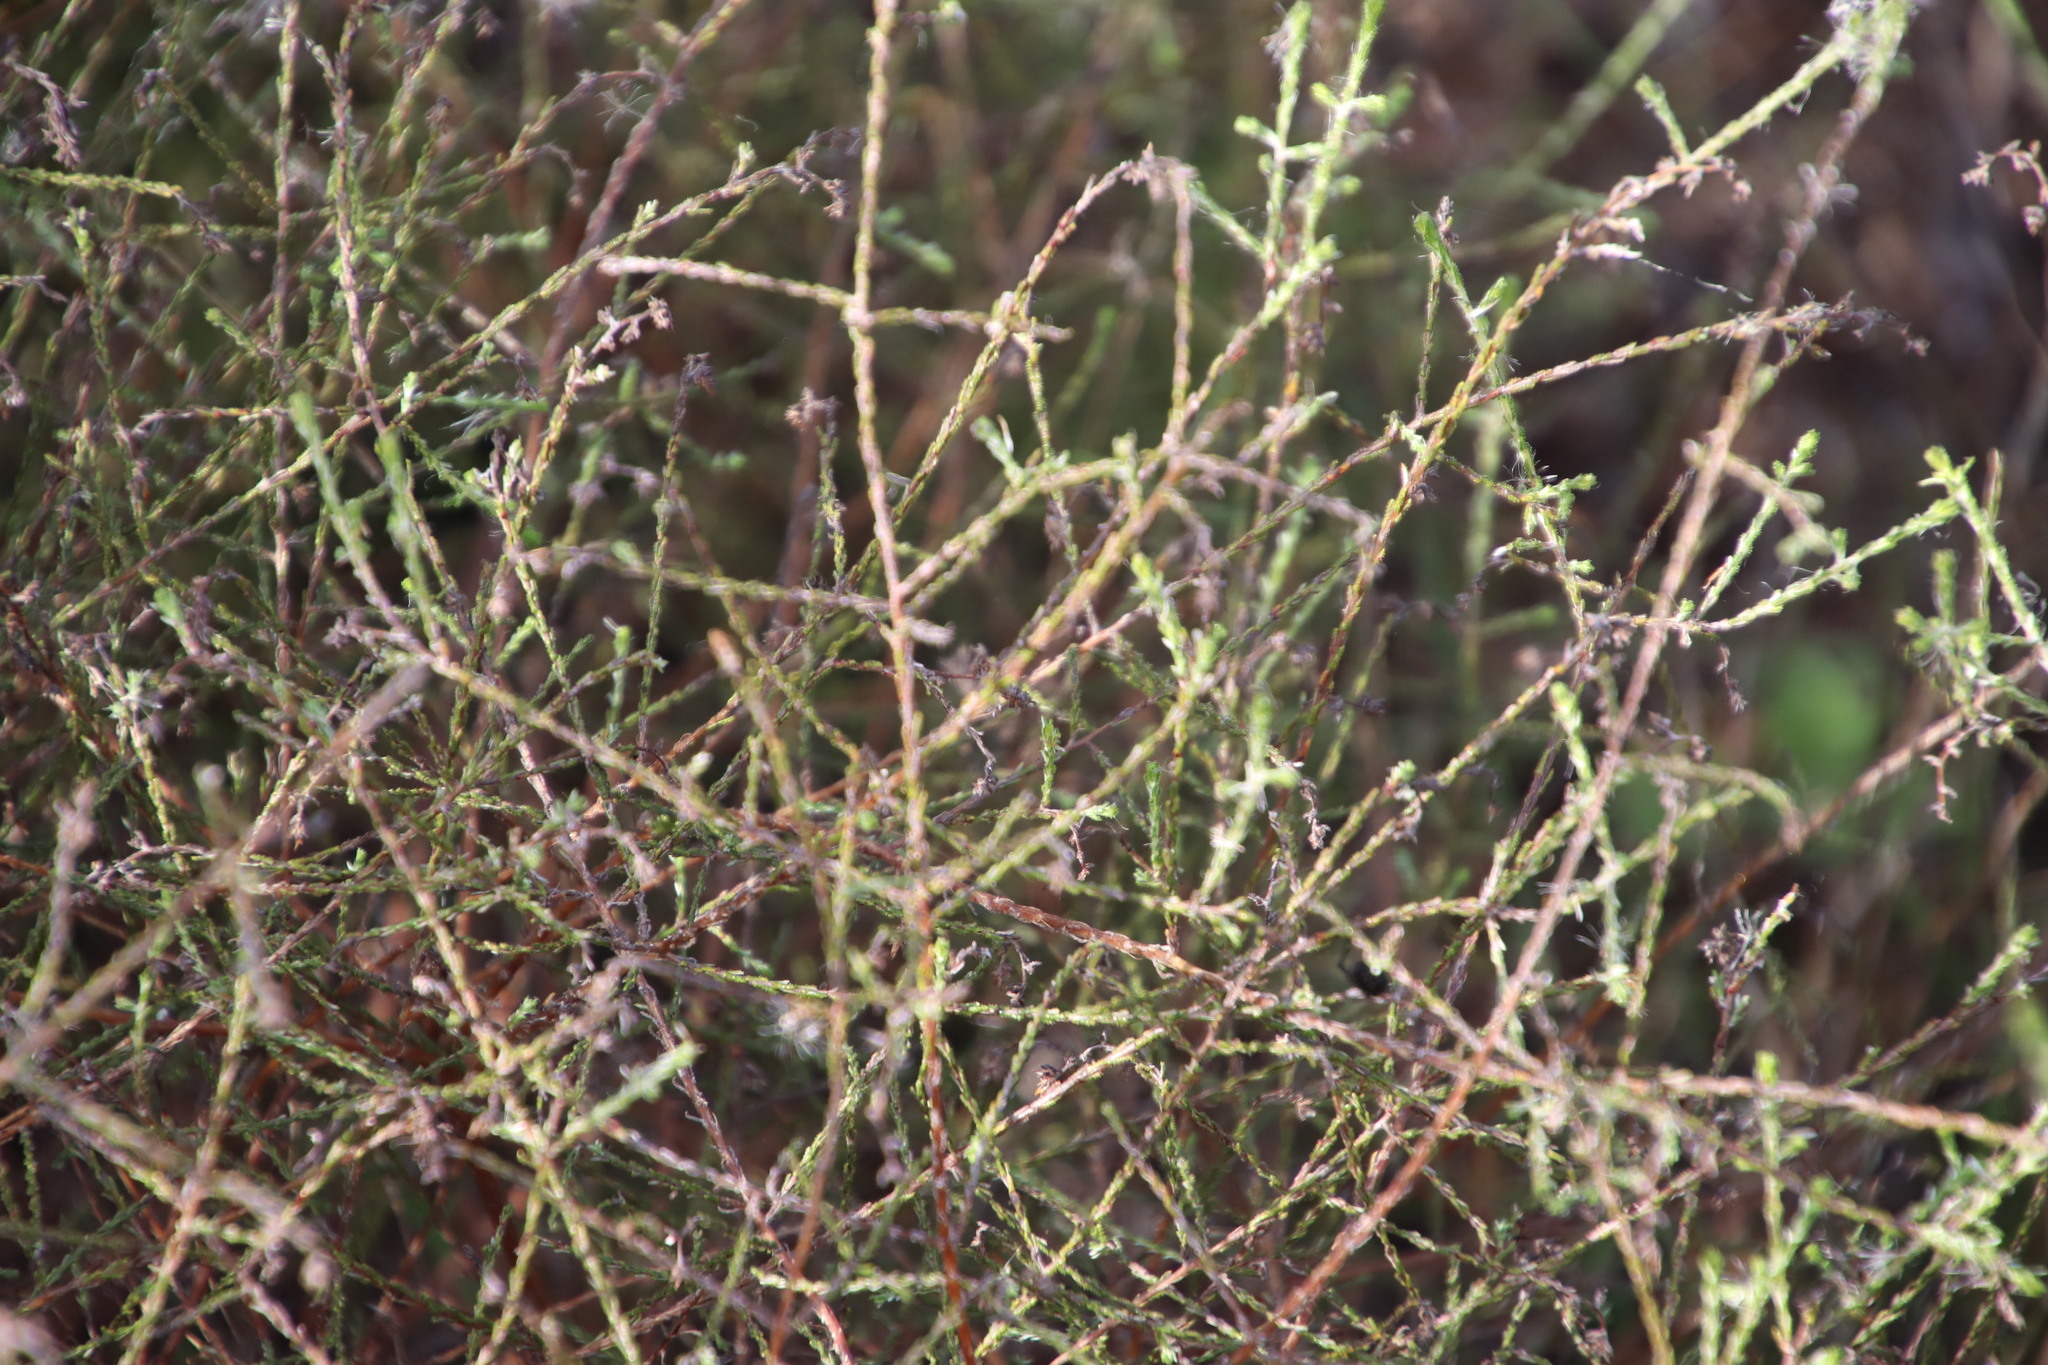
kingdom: Plantae
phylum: Tracheophyta
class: Magnoliopsida
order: Asterales
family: Asteraceae
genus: Myrovernix
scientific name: Myrovernix scaber
